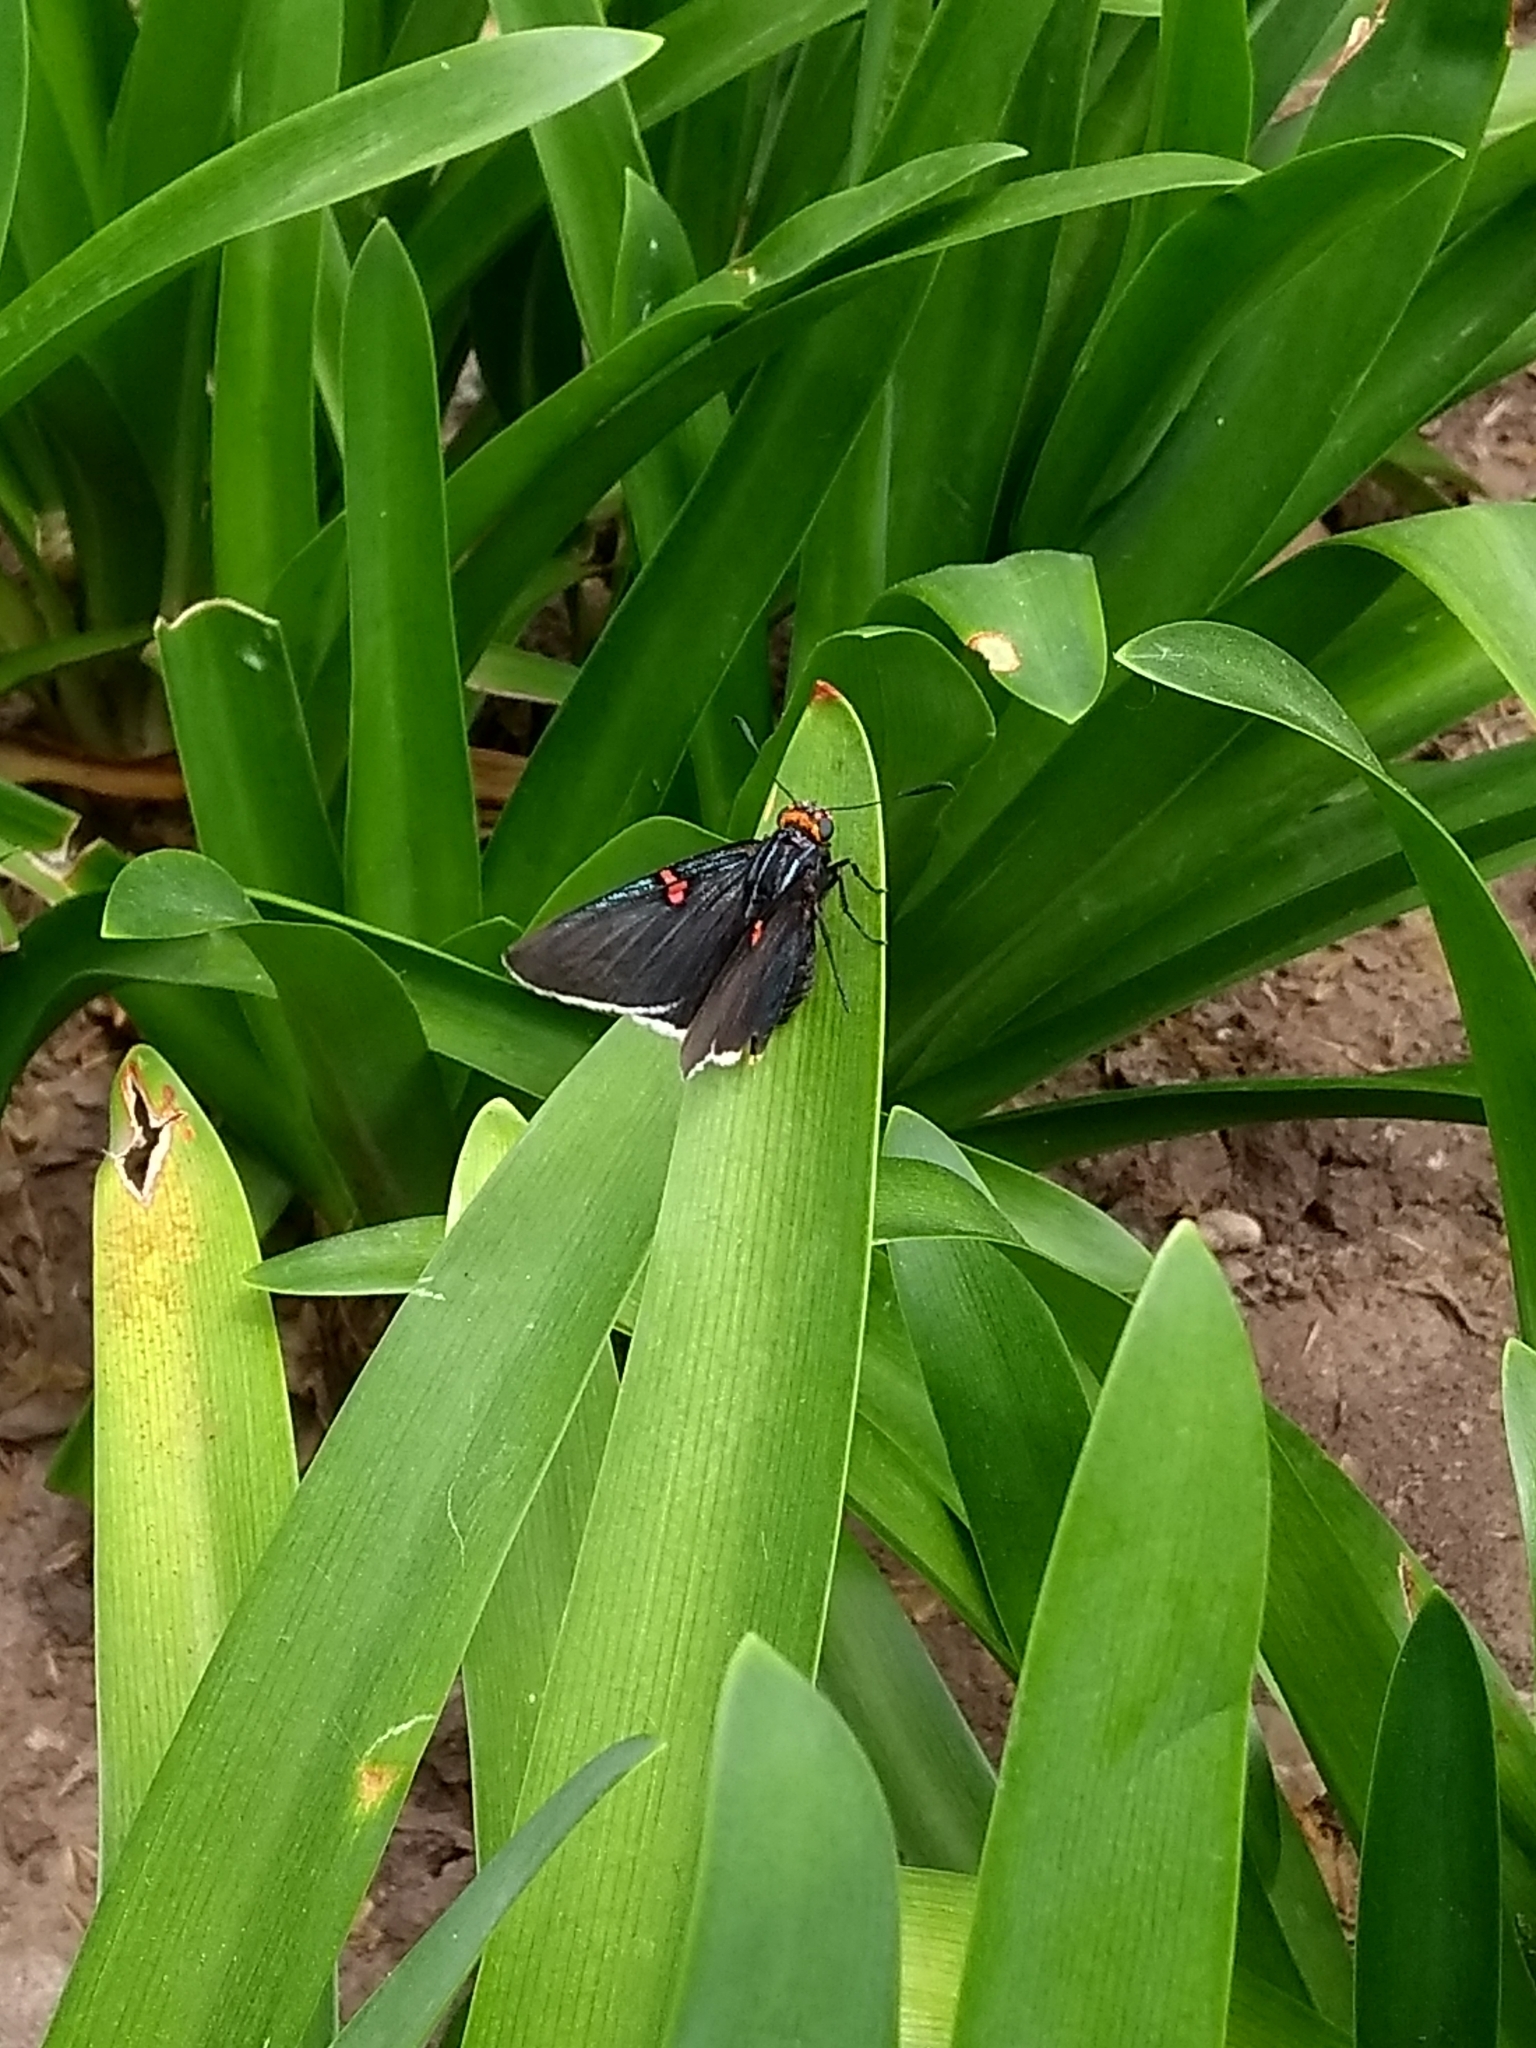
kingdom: Animalia
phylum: Arthropoda
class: Insecta
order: Lepidoptera
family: Hesperiidae
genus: Phocides
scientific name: Phocides polybius
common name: Guava skipper
